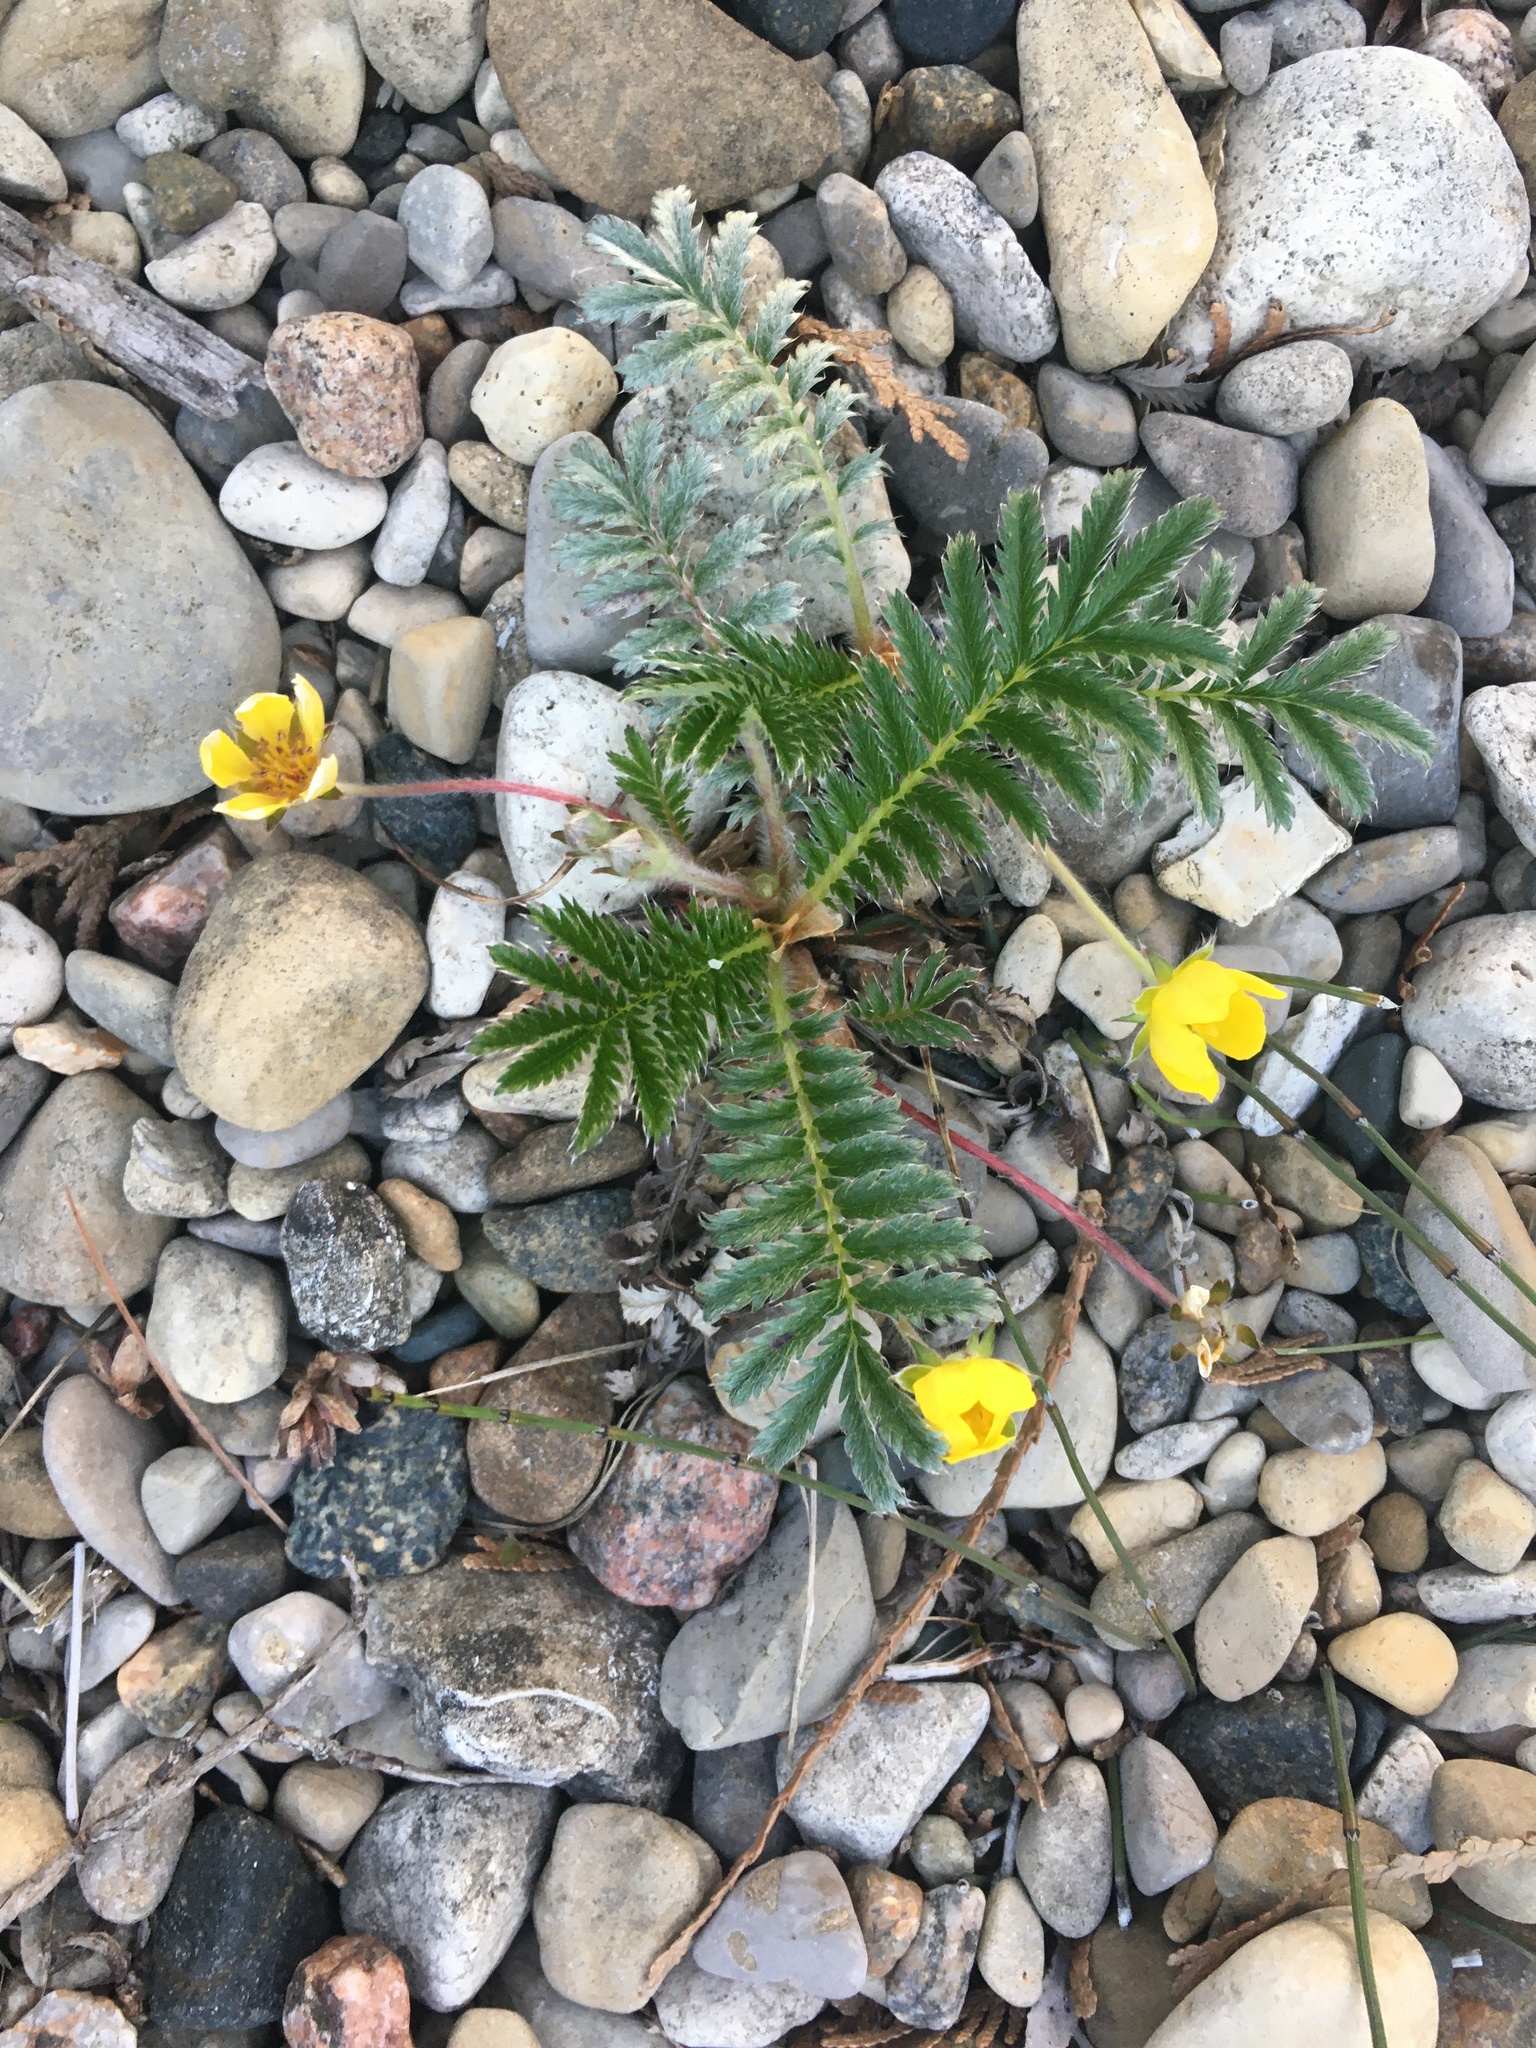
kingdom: Plantae
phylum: Tracheophyta
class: Magnoliopsida
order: Rosales
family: Rosaceae
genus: Argentina
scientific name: Argentina anserina
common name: Common silverweed
